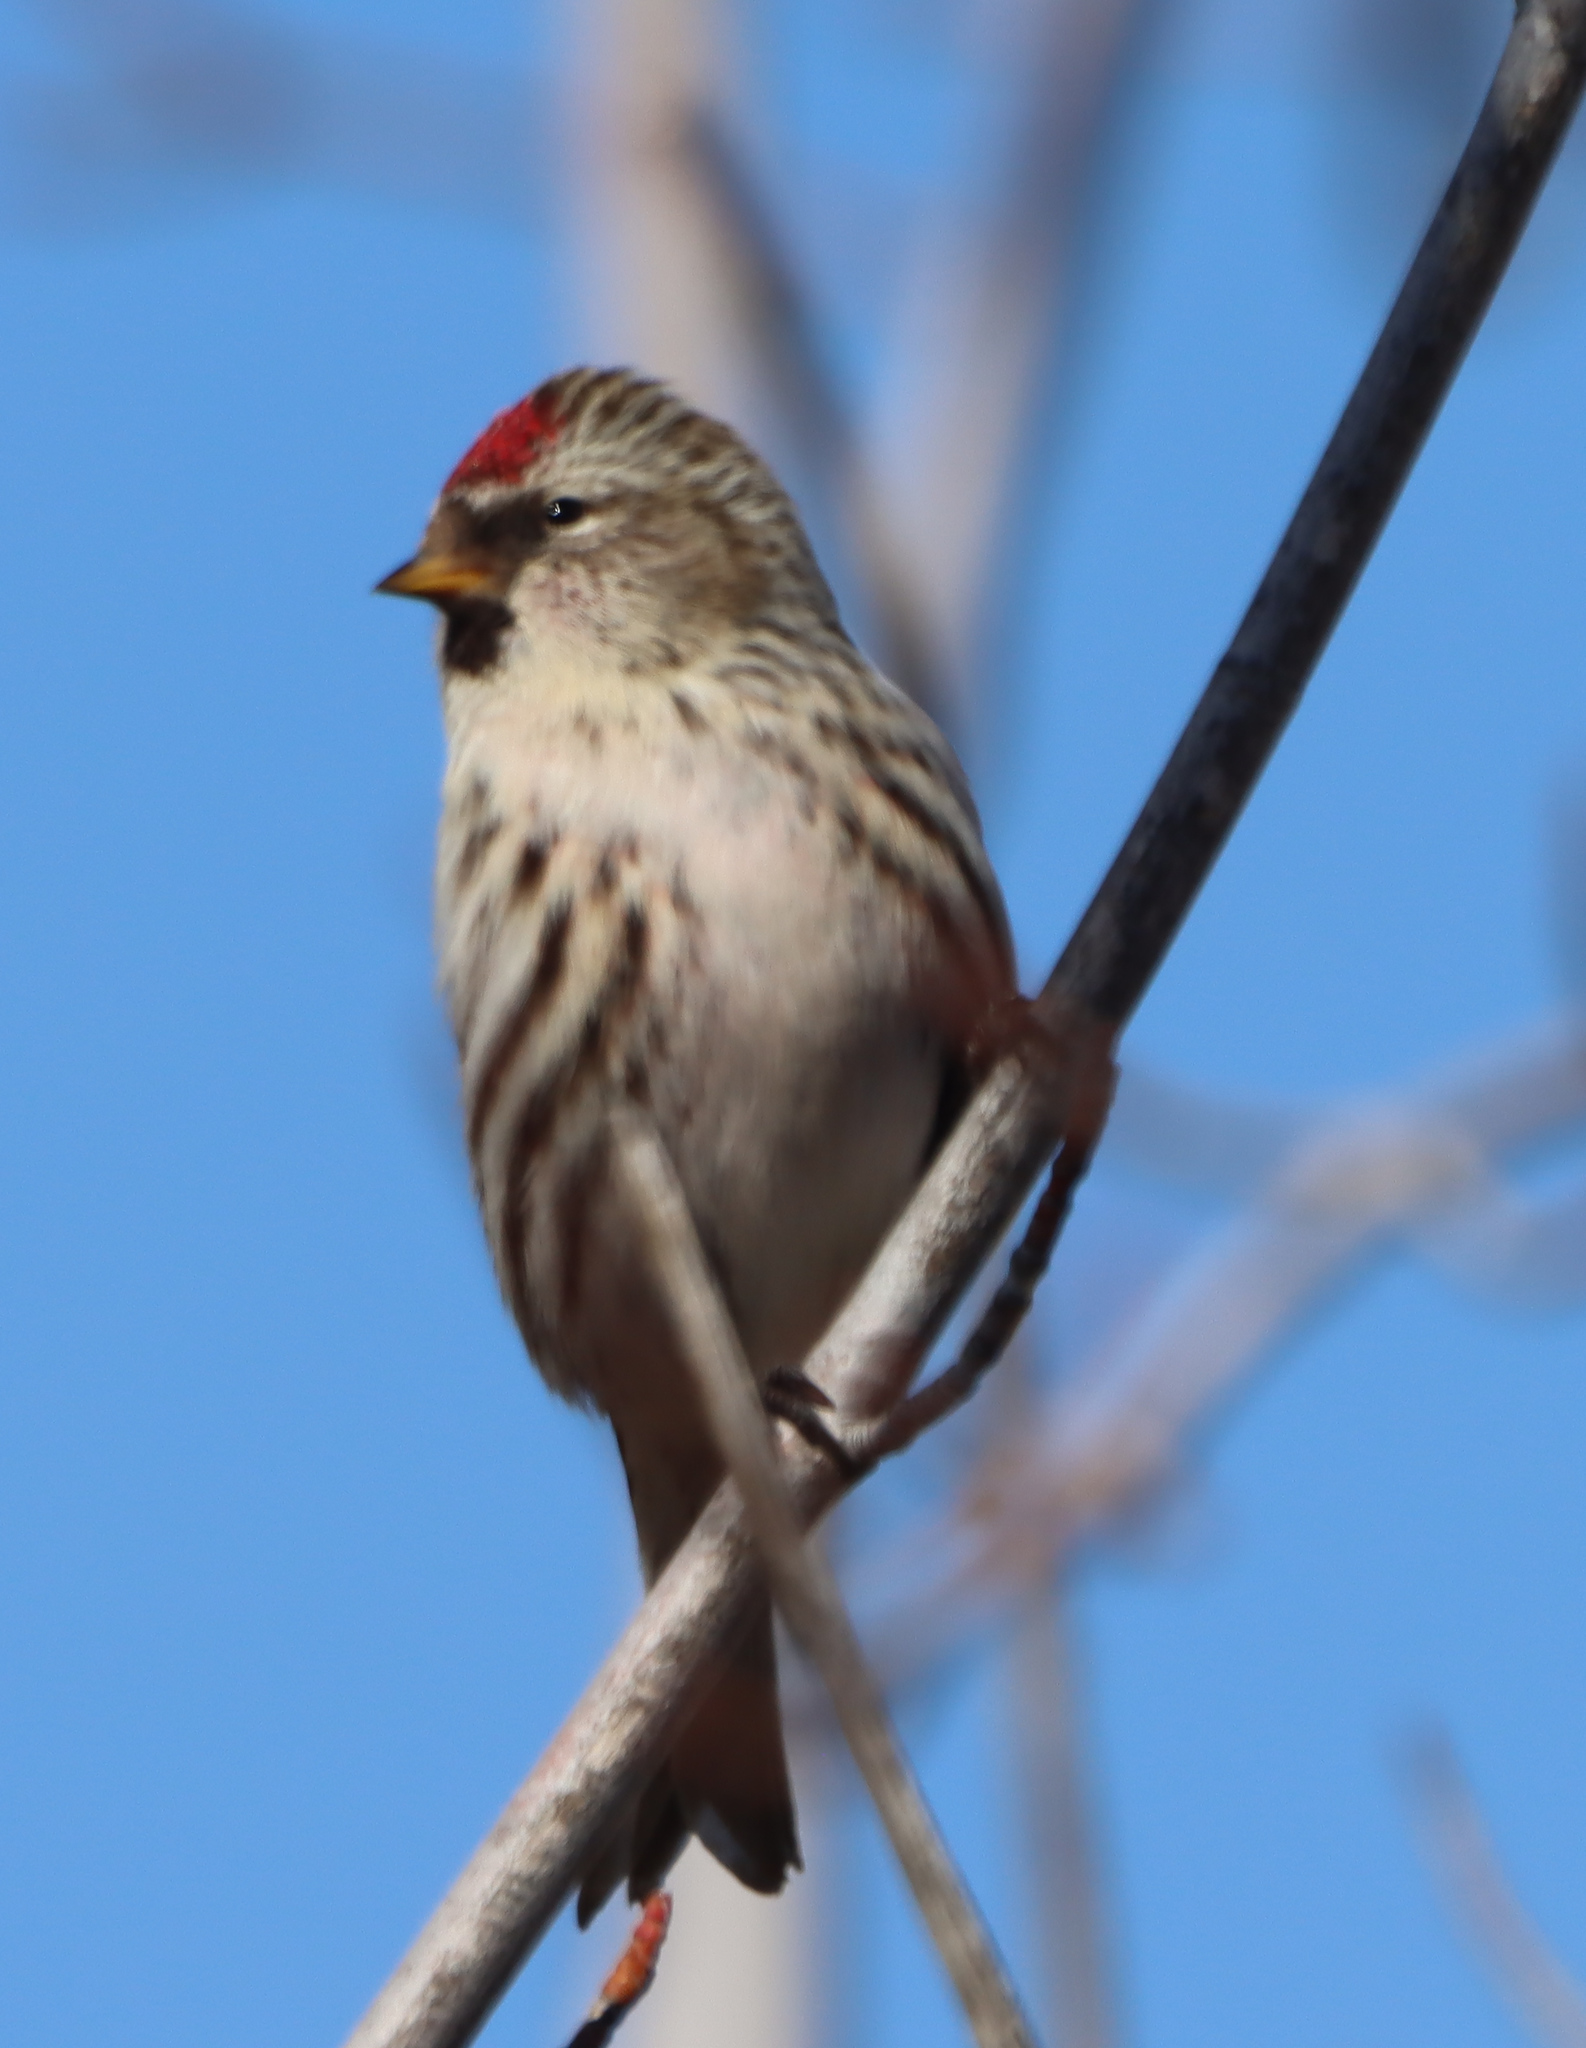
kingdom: Animalia
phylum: Chordata
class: Aves
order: Passeriformes
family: Fringillidae
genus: Acanthis
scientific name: Acanthis flammea
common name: Common redpoll
